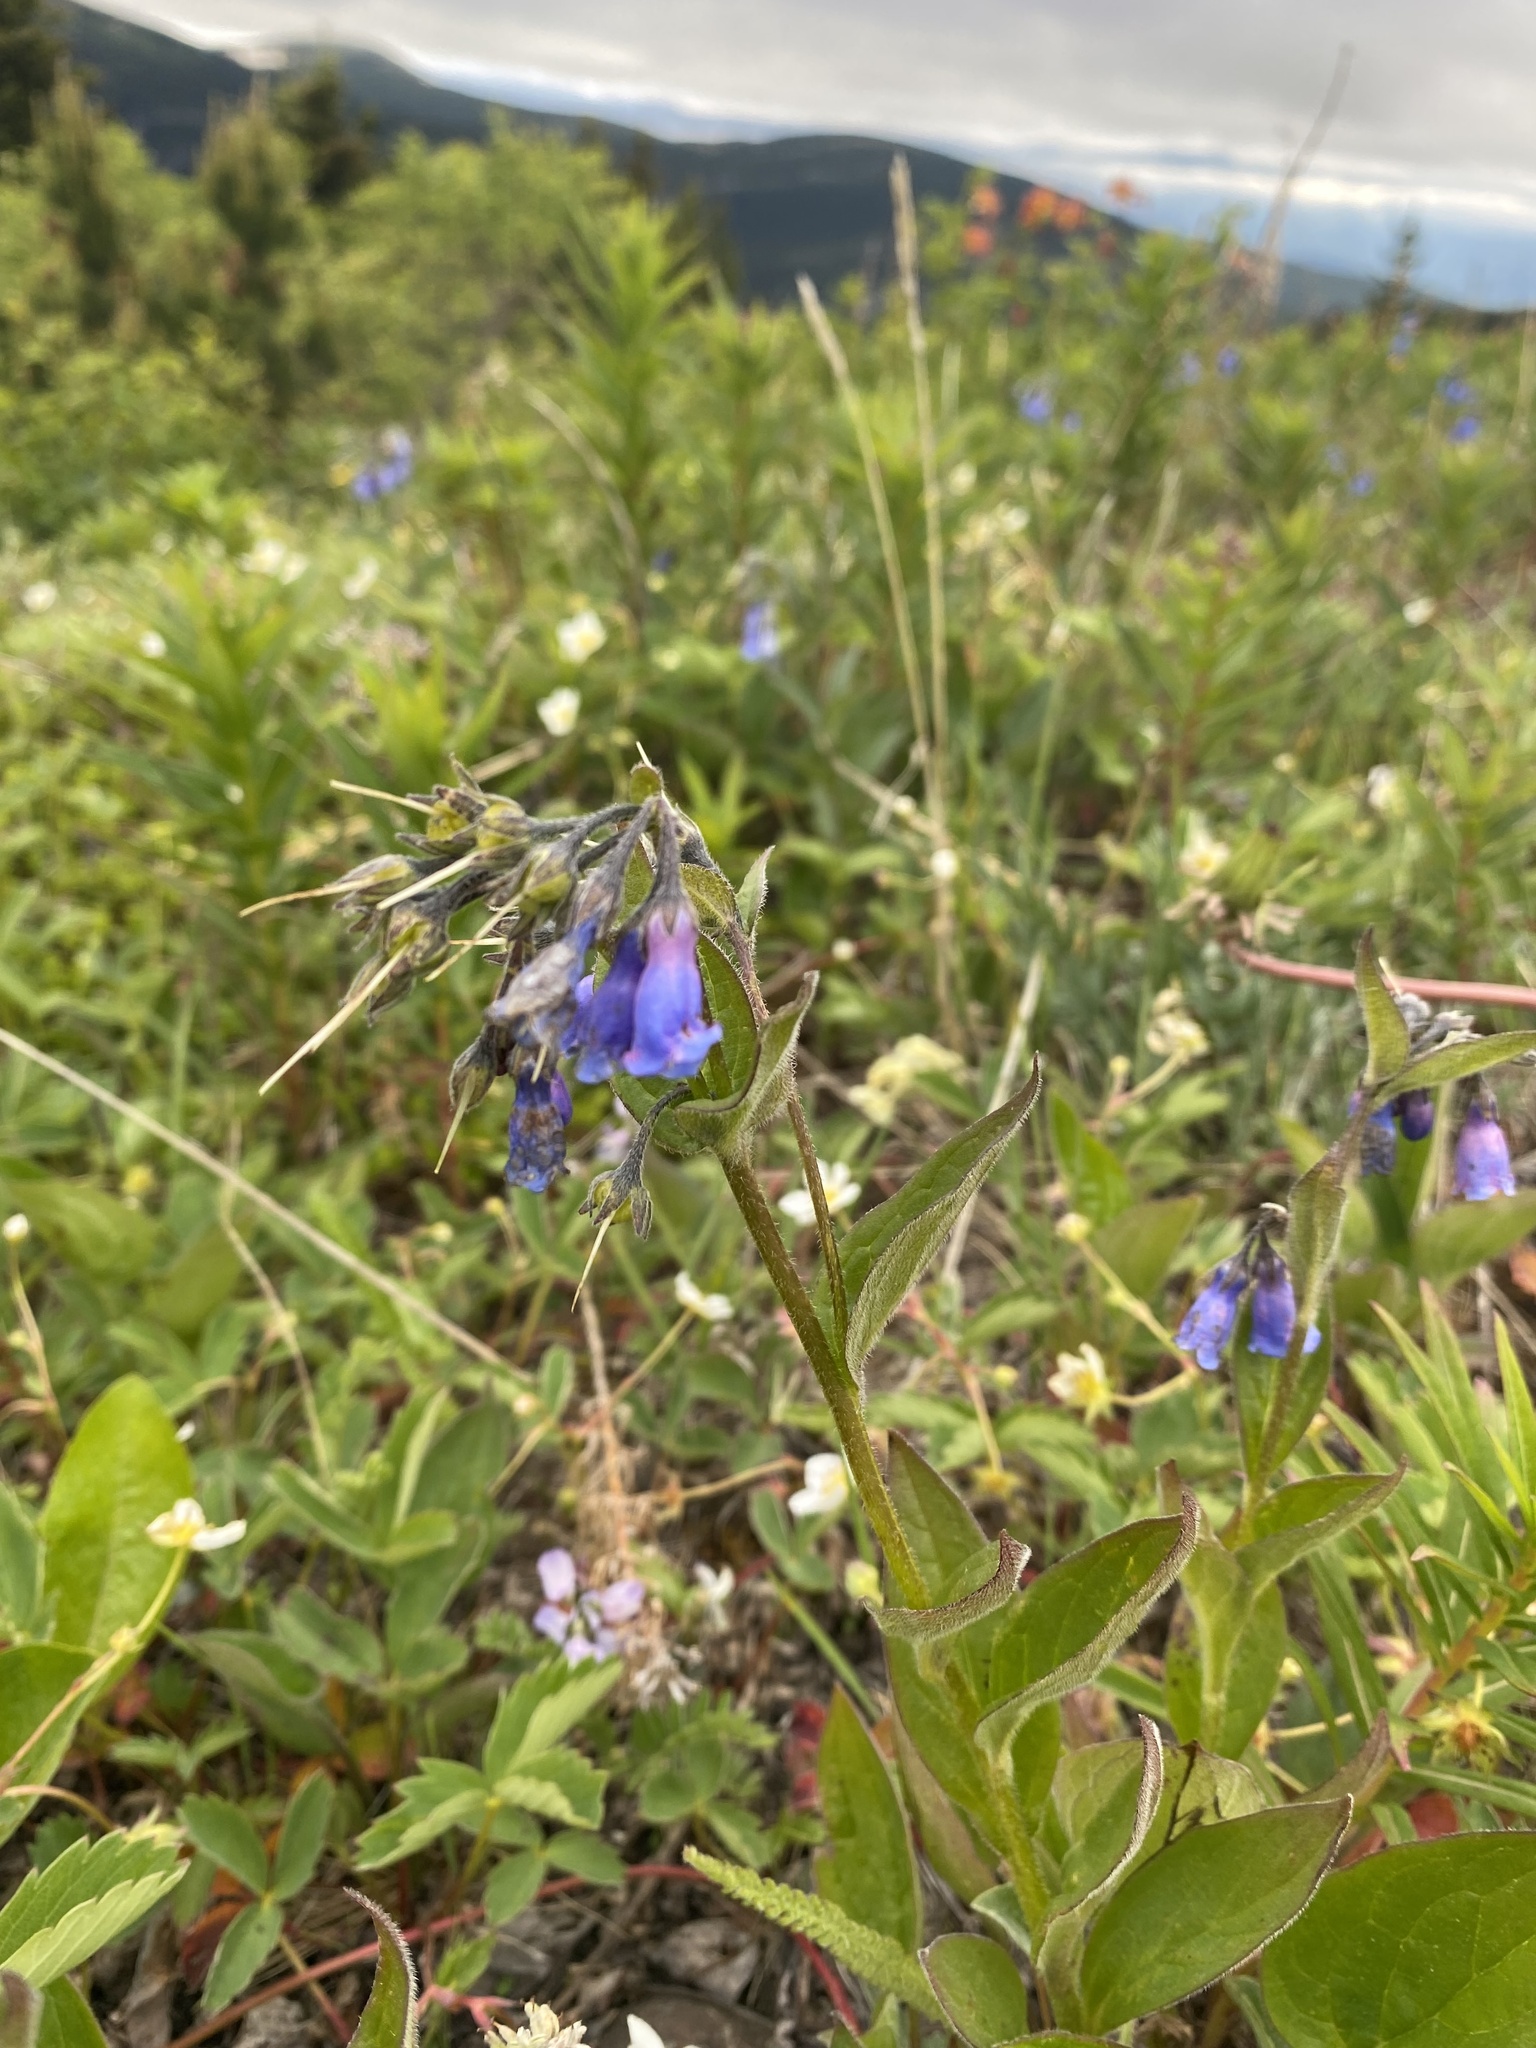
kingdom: Plantae
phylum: Tracheophyta
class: Magnoliopsida
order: Boraginales
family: Boraginaceae
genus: Mertensia
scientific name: Mertensia paniculata
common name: Panicled bluebells
